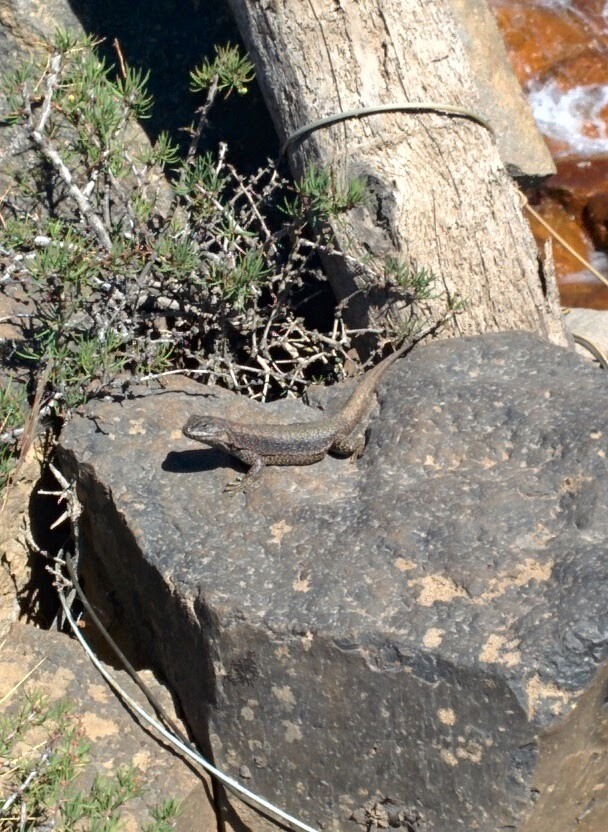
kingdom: Animalia
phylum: Chordata
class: Squamata
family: Liolaemidae
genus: Liolaemus
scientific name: Liolaemus neuquensis
